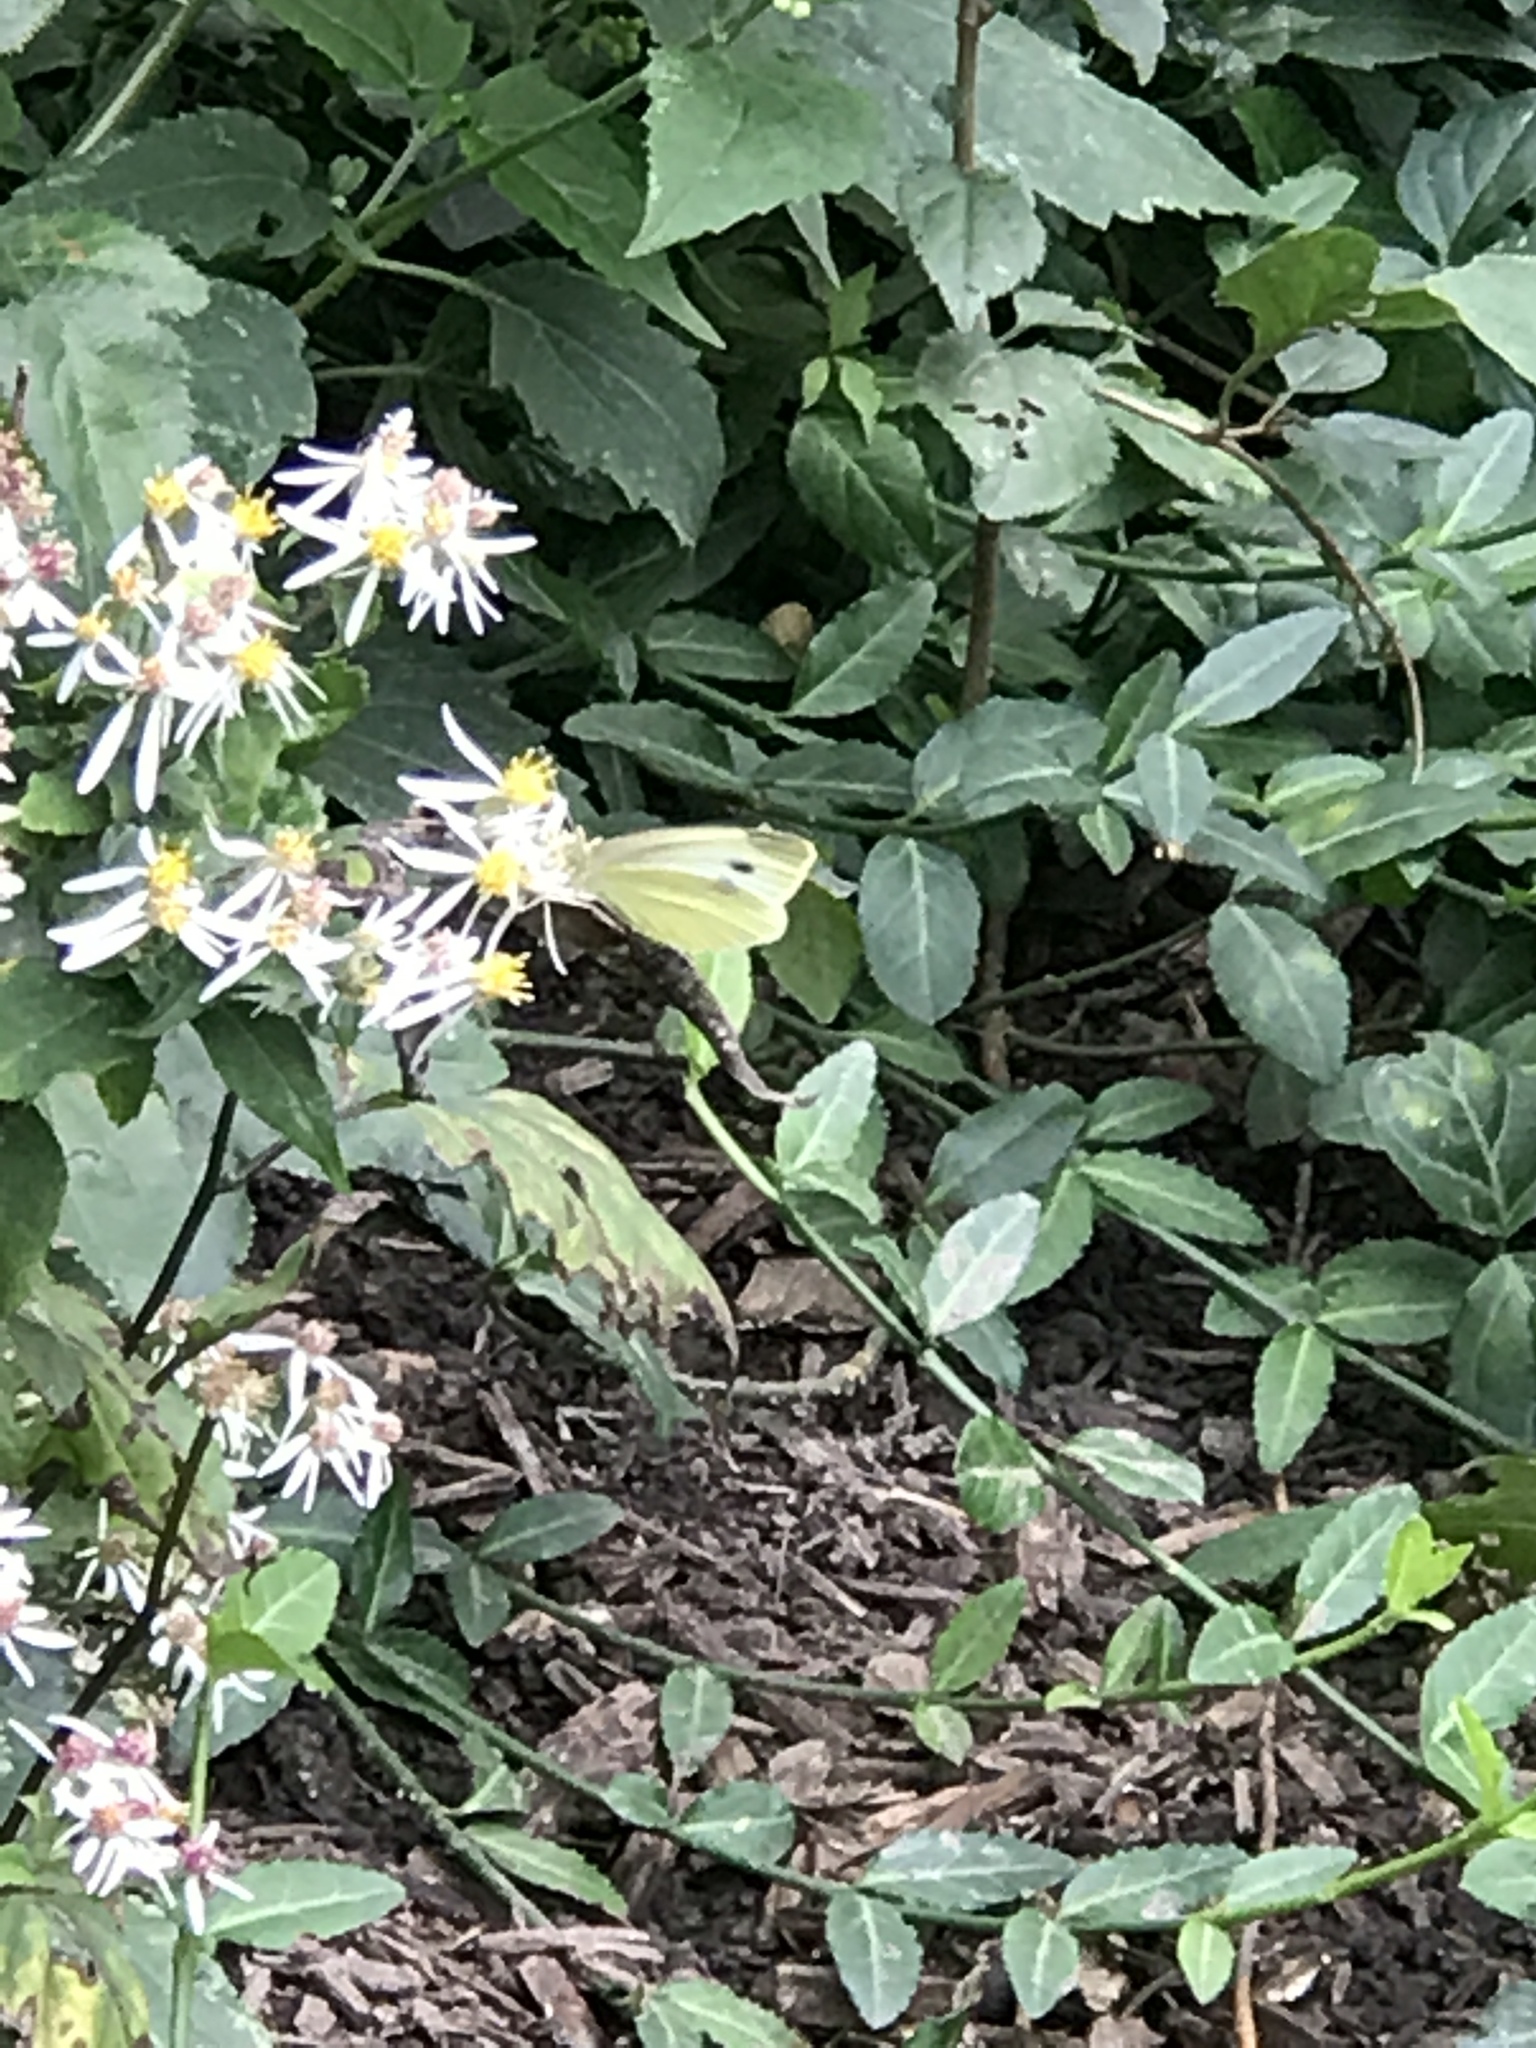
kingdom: Animalia
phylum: Arthropoda
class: Insecta
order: Lepidoptera
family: Pieridae
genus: Pieris
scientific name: Pieris rapae
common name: Small white
